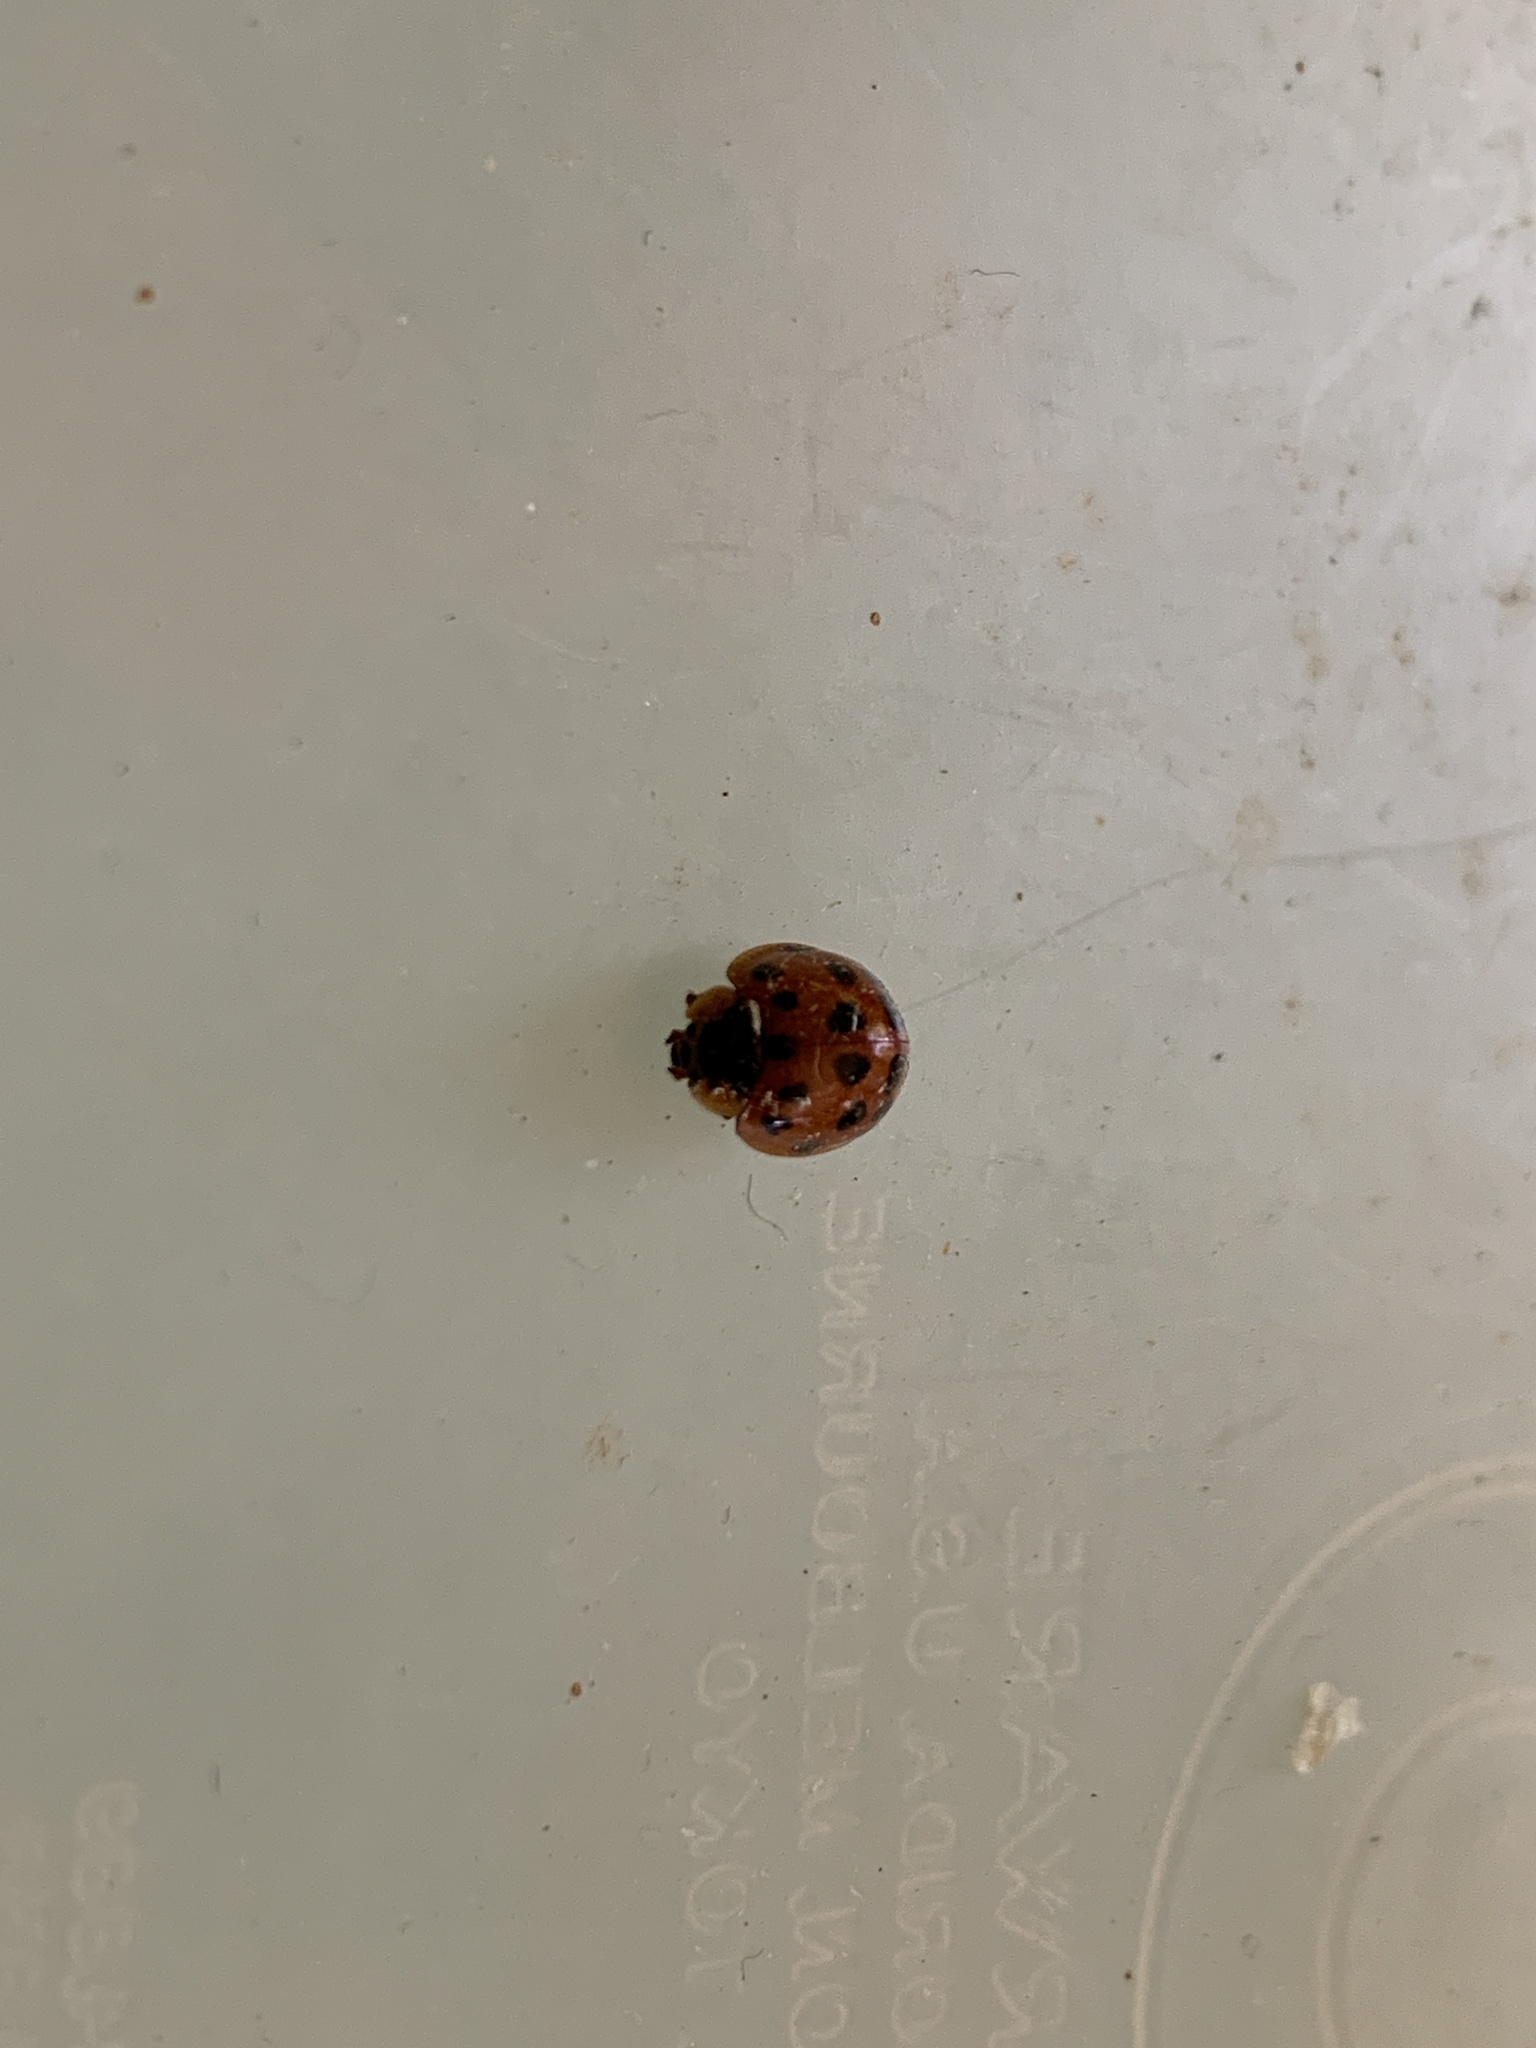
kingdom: Animalia
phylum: Arthropoda
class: Insecta
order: Coleoptera
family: Coccinellidae
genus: Harmonia
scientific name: Harmonia axyridis
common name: Harlequin ladybird
